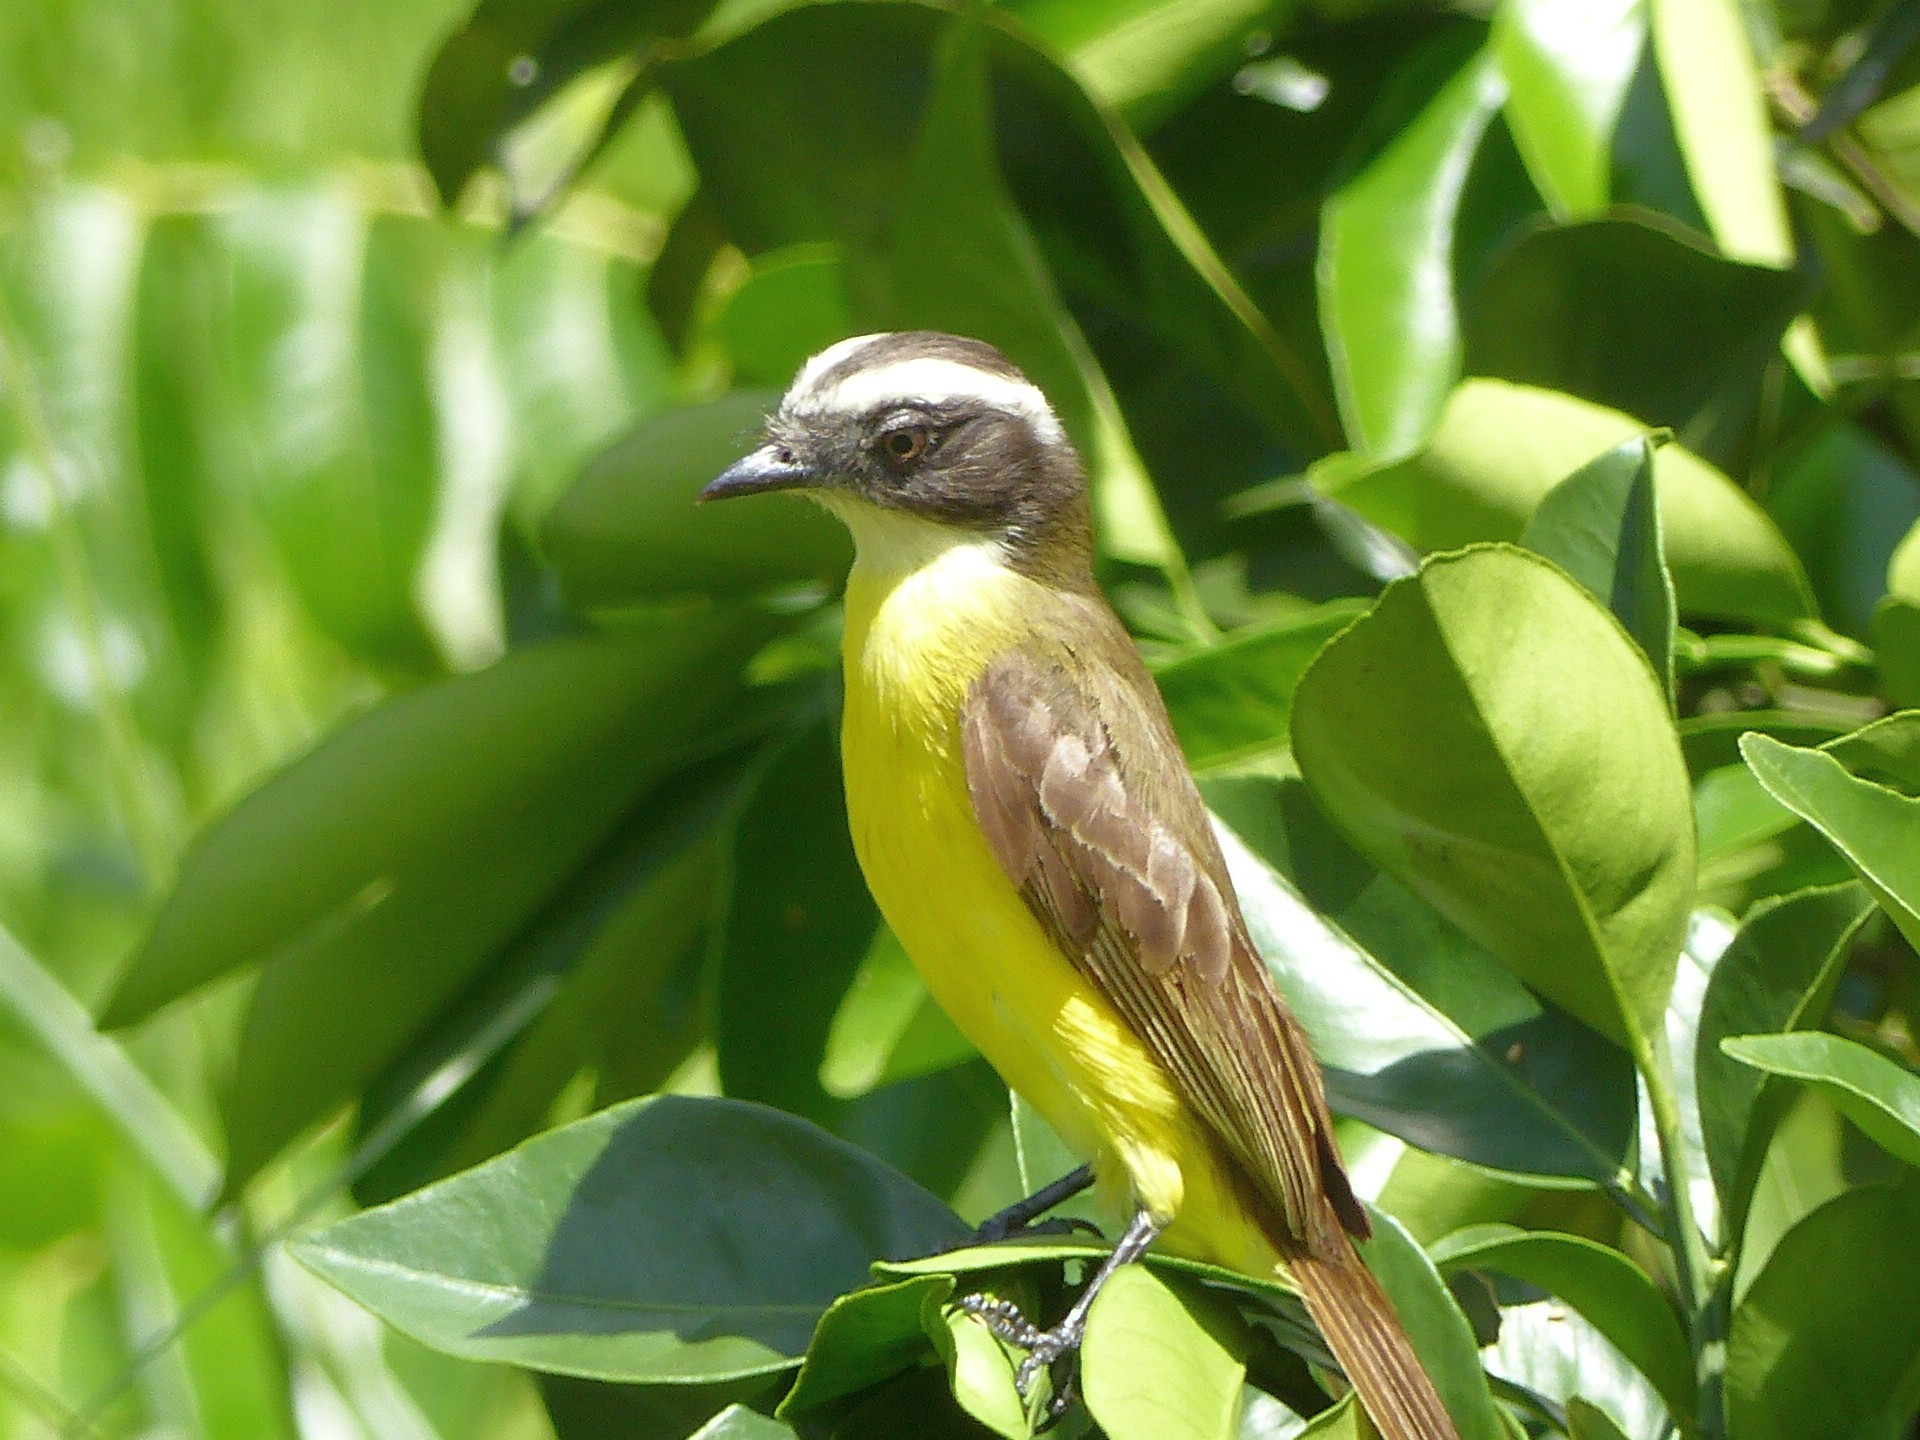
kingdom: Animalia
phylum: Chordata
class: Aves
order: Passeriformes
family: Tyrannidae
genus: Myiozetetes
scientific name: Myiozetetes similis
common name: Social flycatcher
